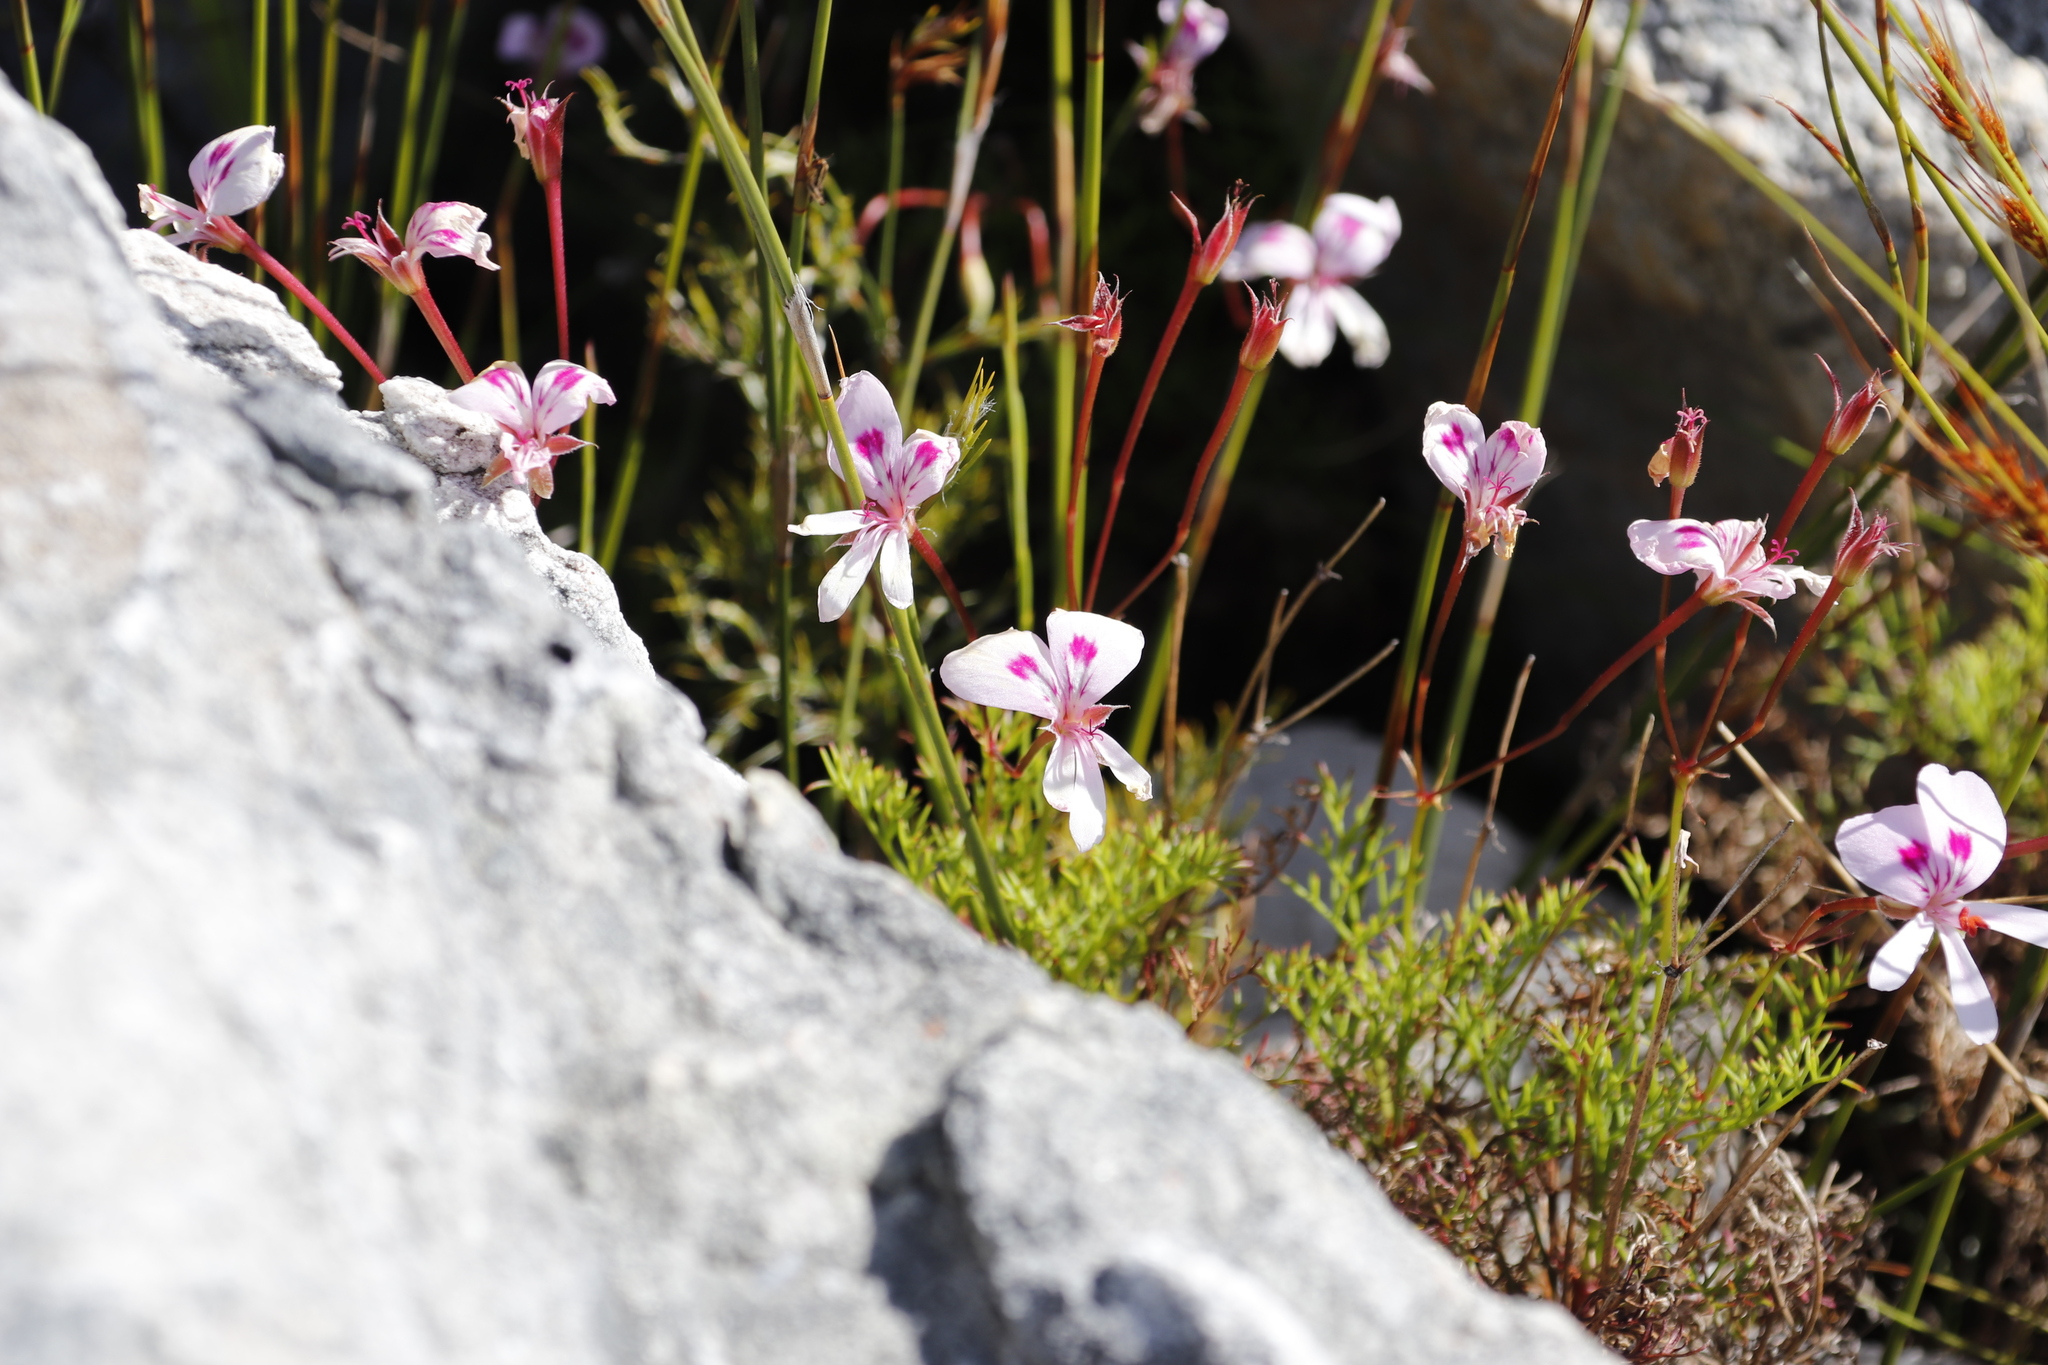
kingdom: Plantae
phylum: Tracheophyta
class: Magnoliopsida
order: Geraniales
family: Geraniaceae
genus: Pelargonium
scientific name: Pelargonium artemisiifolium
